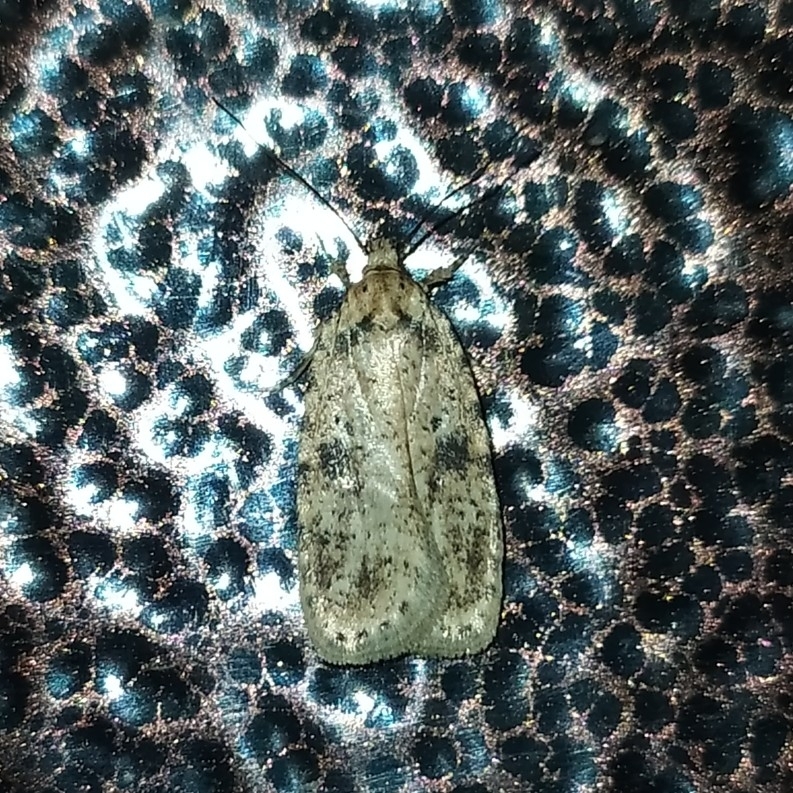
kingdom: Animalia
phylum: Arthropoda
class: Insecta
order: Lepidoptera
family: Depressariidae
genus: Agonopterix
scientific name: Agonopterix arenella
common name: Brindled flat-body
